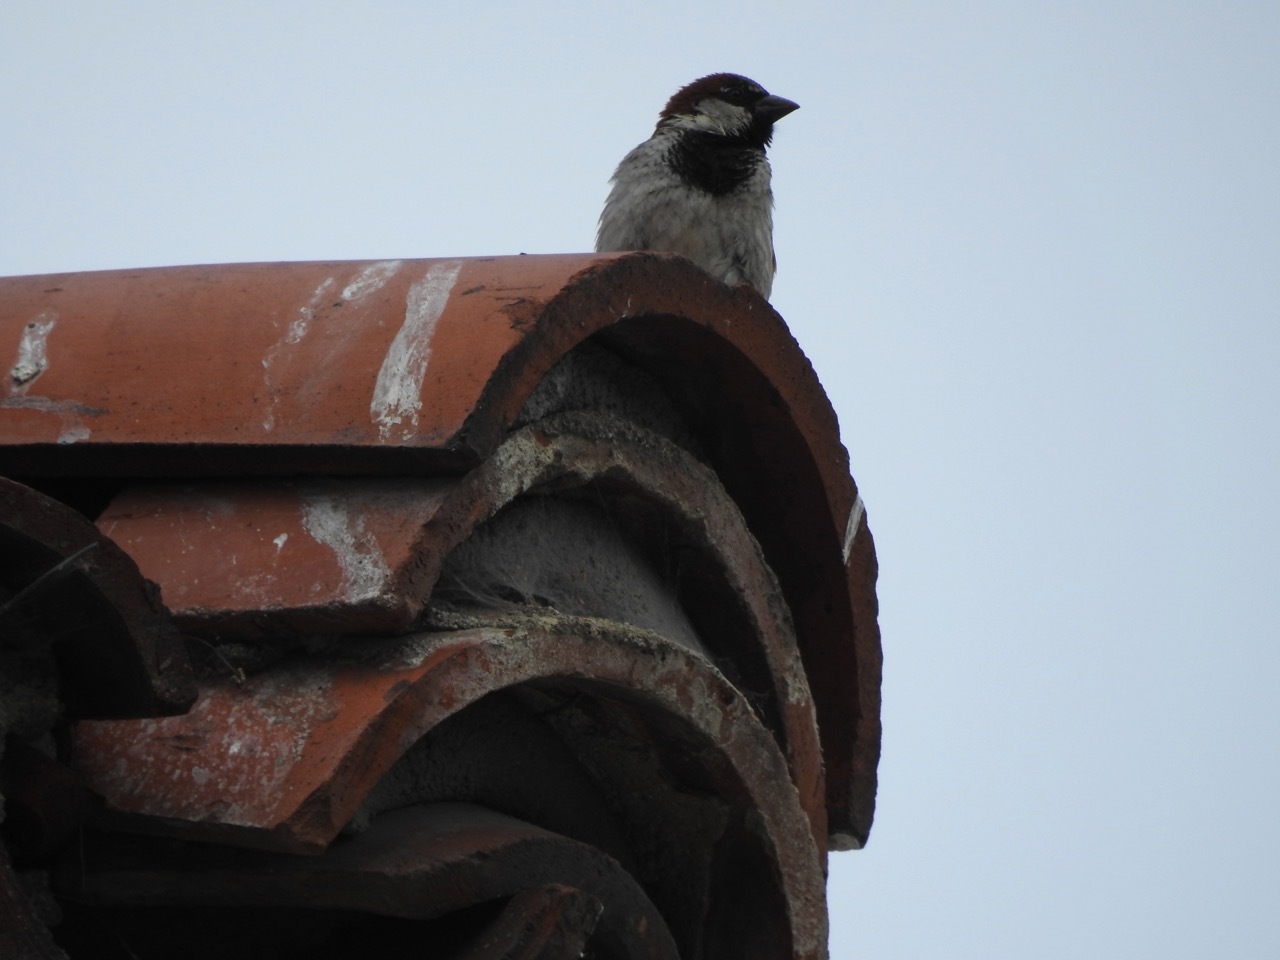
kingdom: Animalia
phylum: Chordata
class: Aves
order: Passeriformes
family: Passeridae
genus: Passer
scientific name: Passer domesticus
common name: House sparrow
